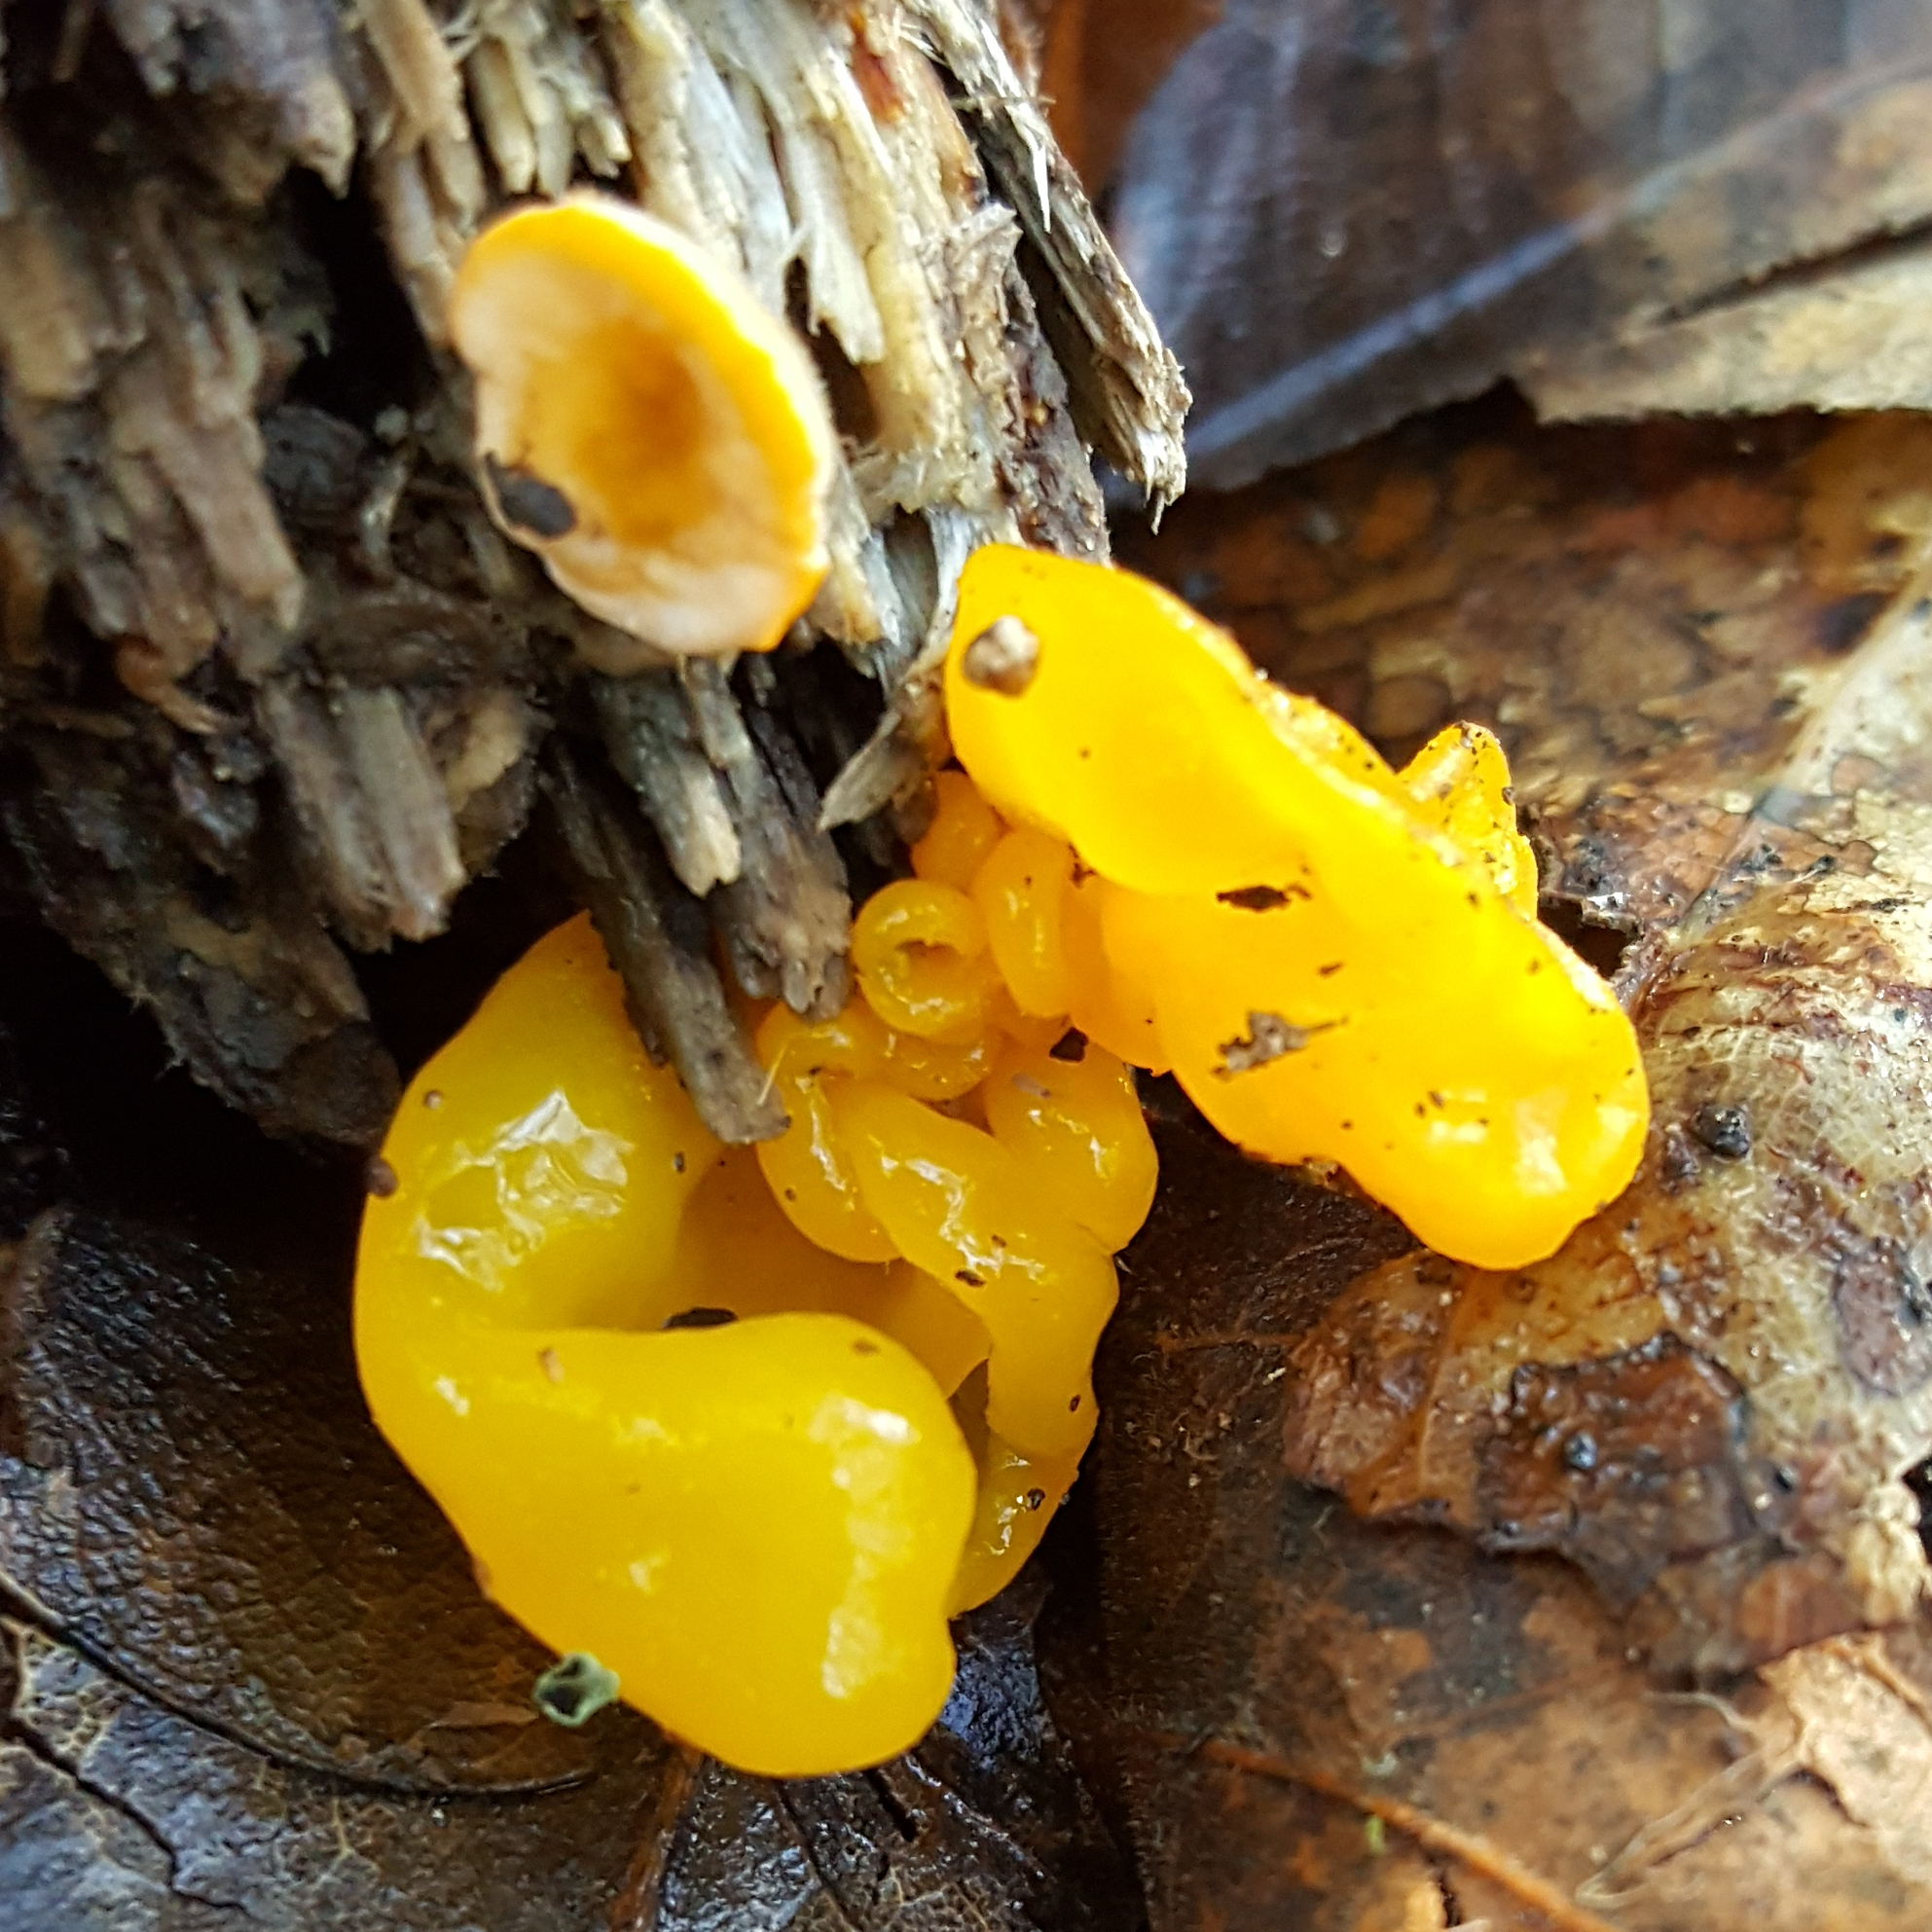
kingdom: Fungi
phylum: Basidiomycota
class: Tremellomycetes
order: Tremellales
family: Naemateliaceae
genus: Naematelia
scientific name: Naematelia aurantia
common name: Golden ear
